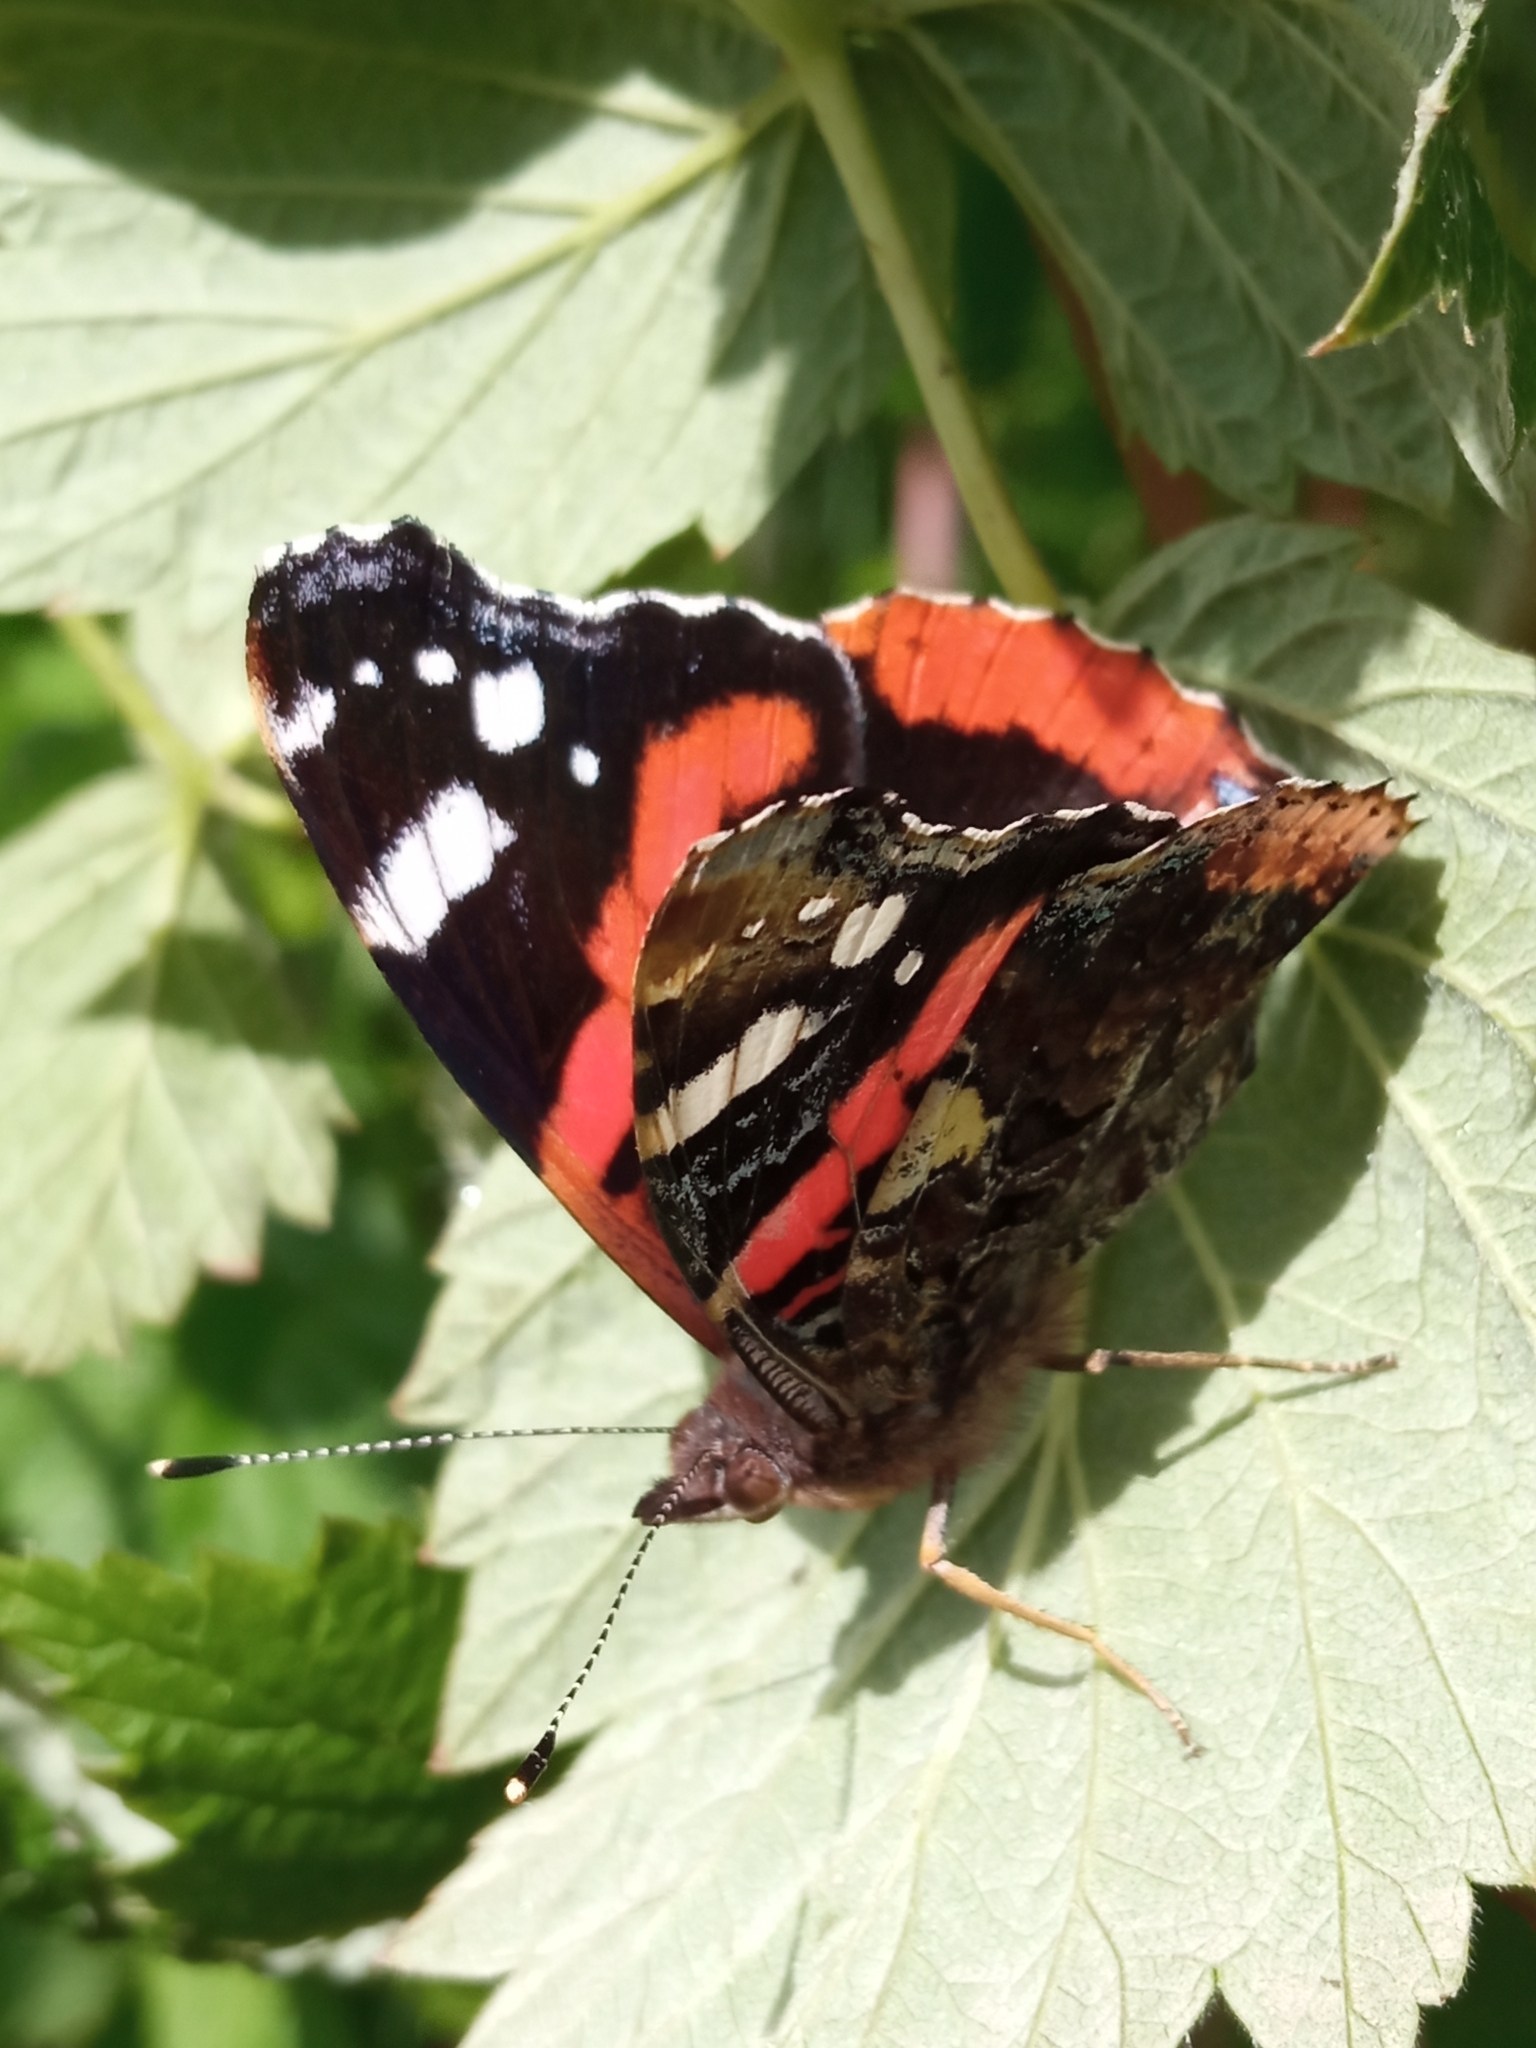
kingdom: Animalia
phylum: Arthropoda
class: Insecta
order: Lepidoptera
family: Nymphalidae
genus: Vanessa
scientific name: Vanessa atalanta
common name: Red admiral
